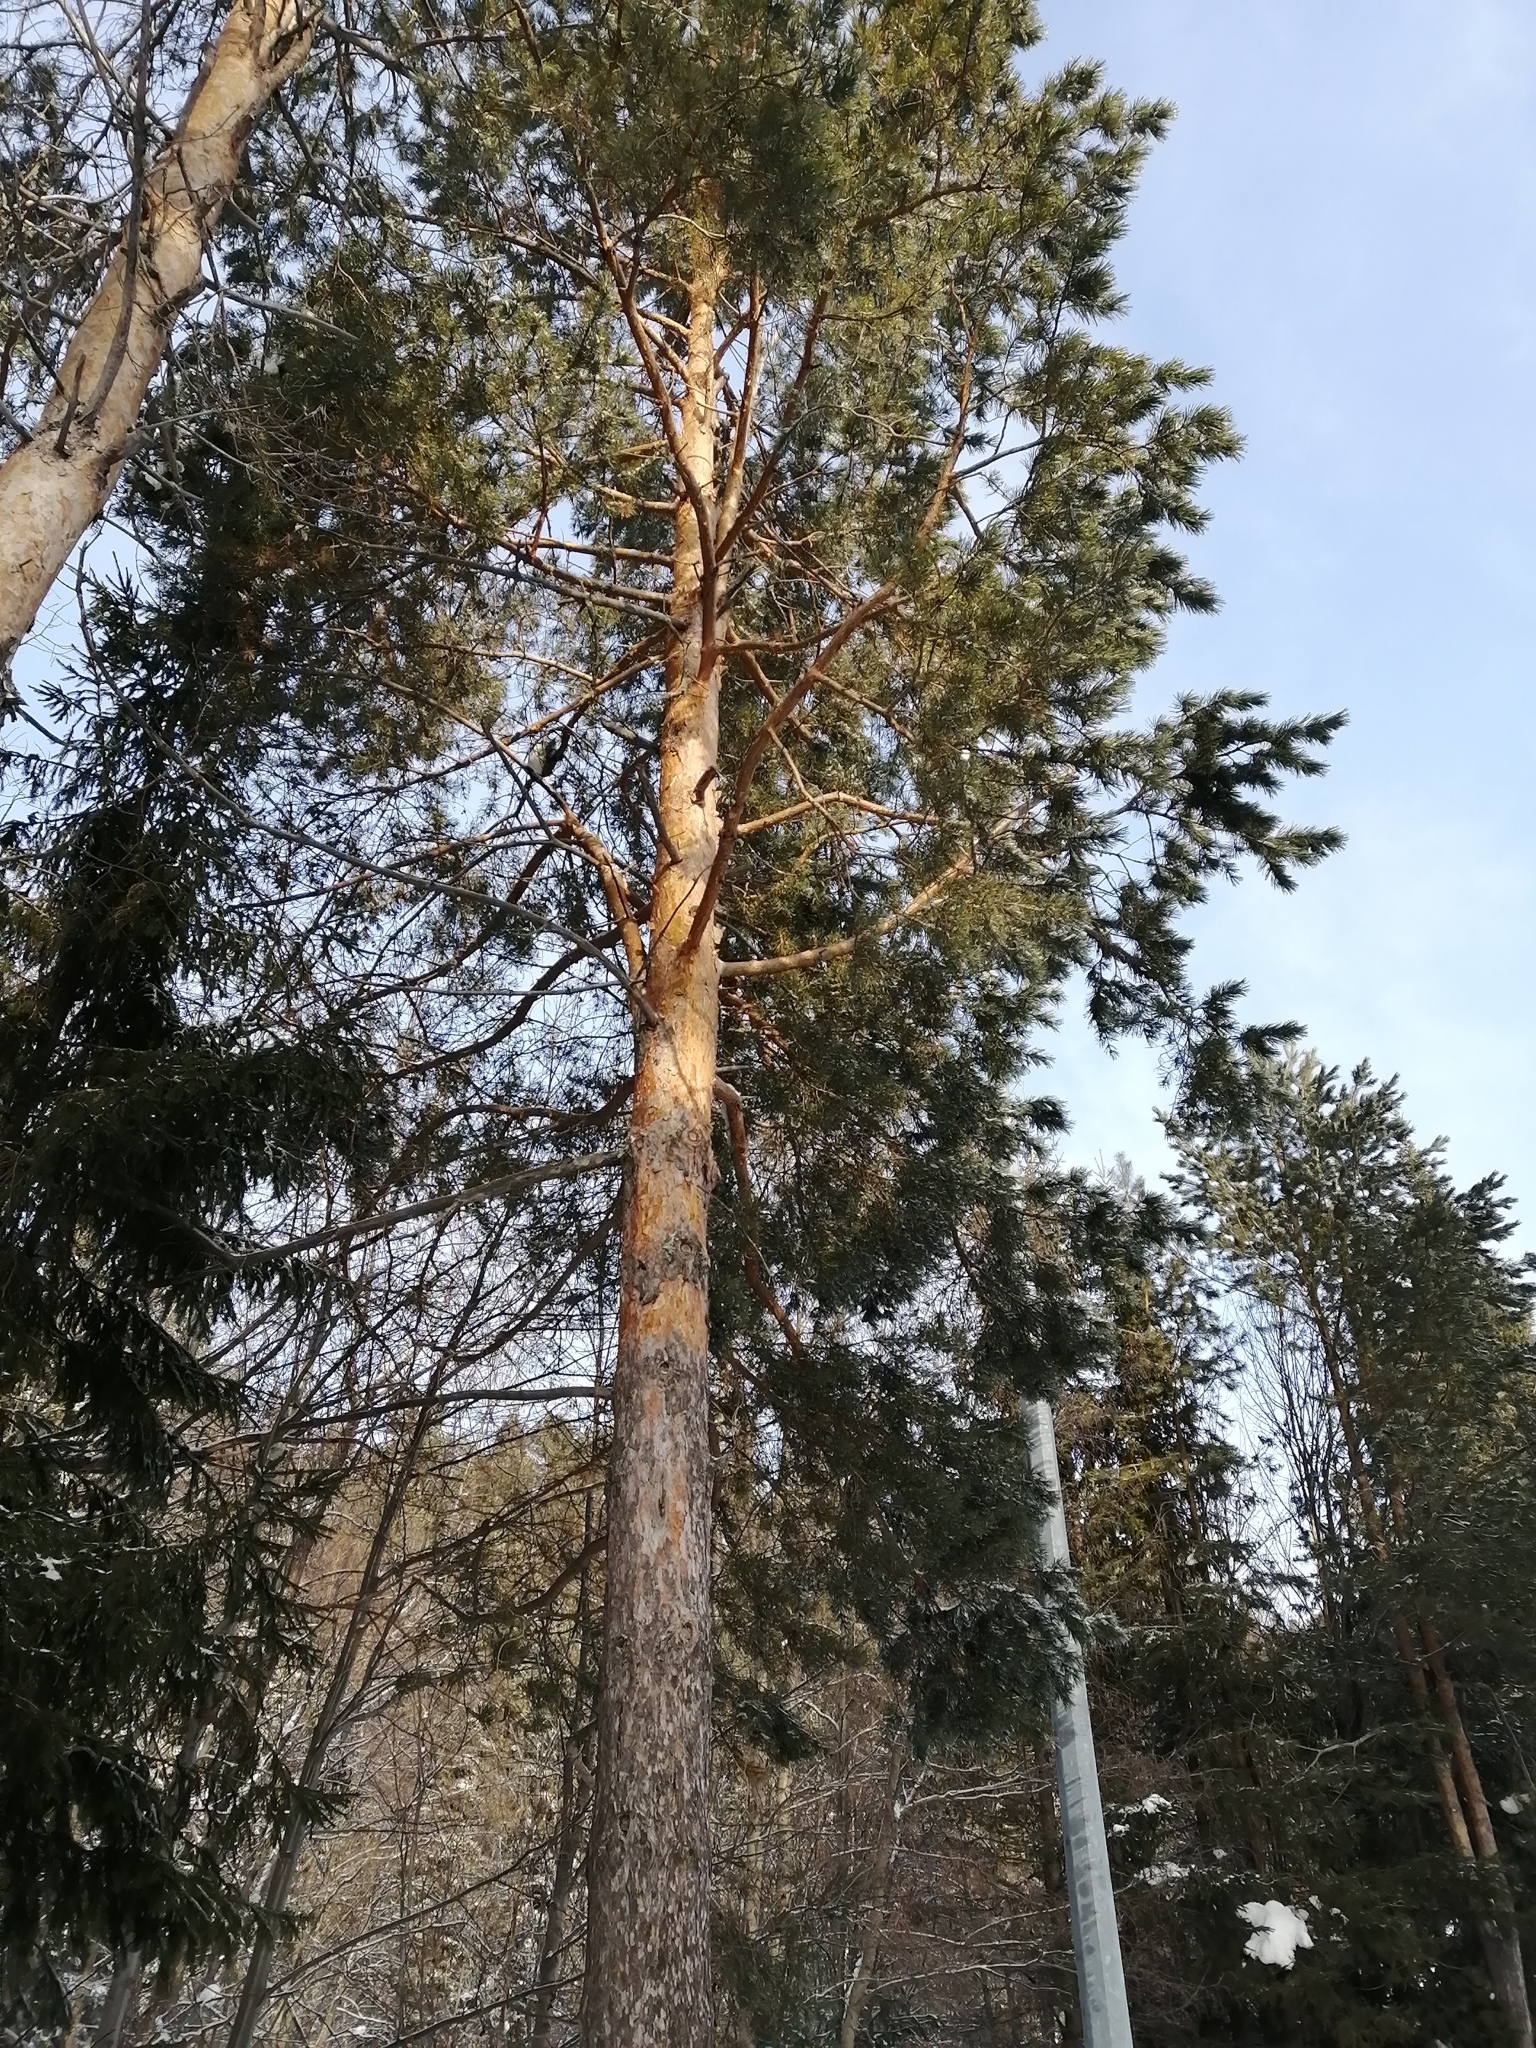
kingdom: Plantae
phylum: Tracheophyta
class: Pinopsida
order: Pinales
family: Pinaceae
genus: Pinus
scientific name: Pinus sylvestris
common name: Scots pine
